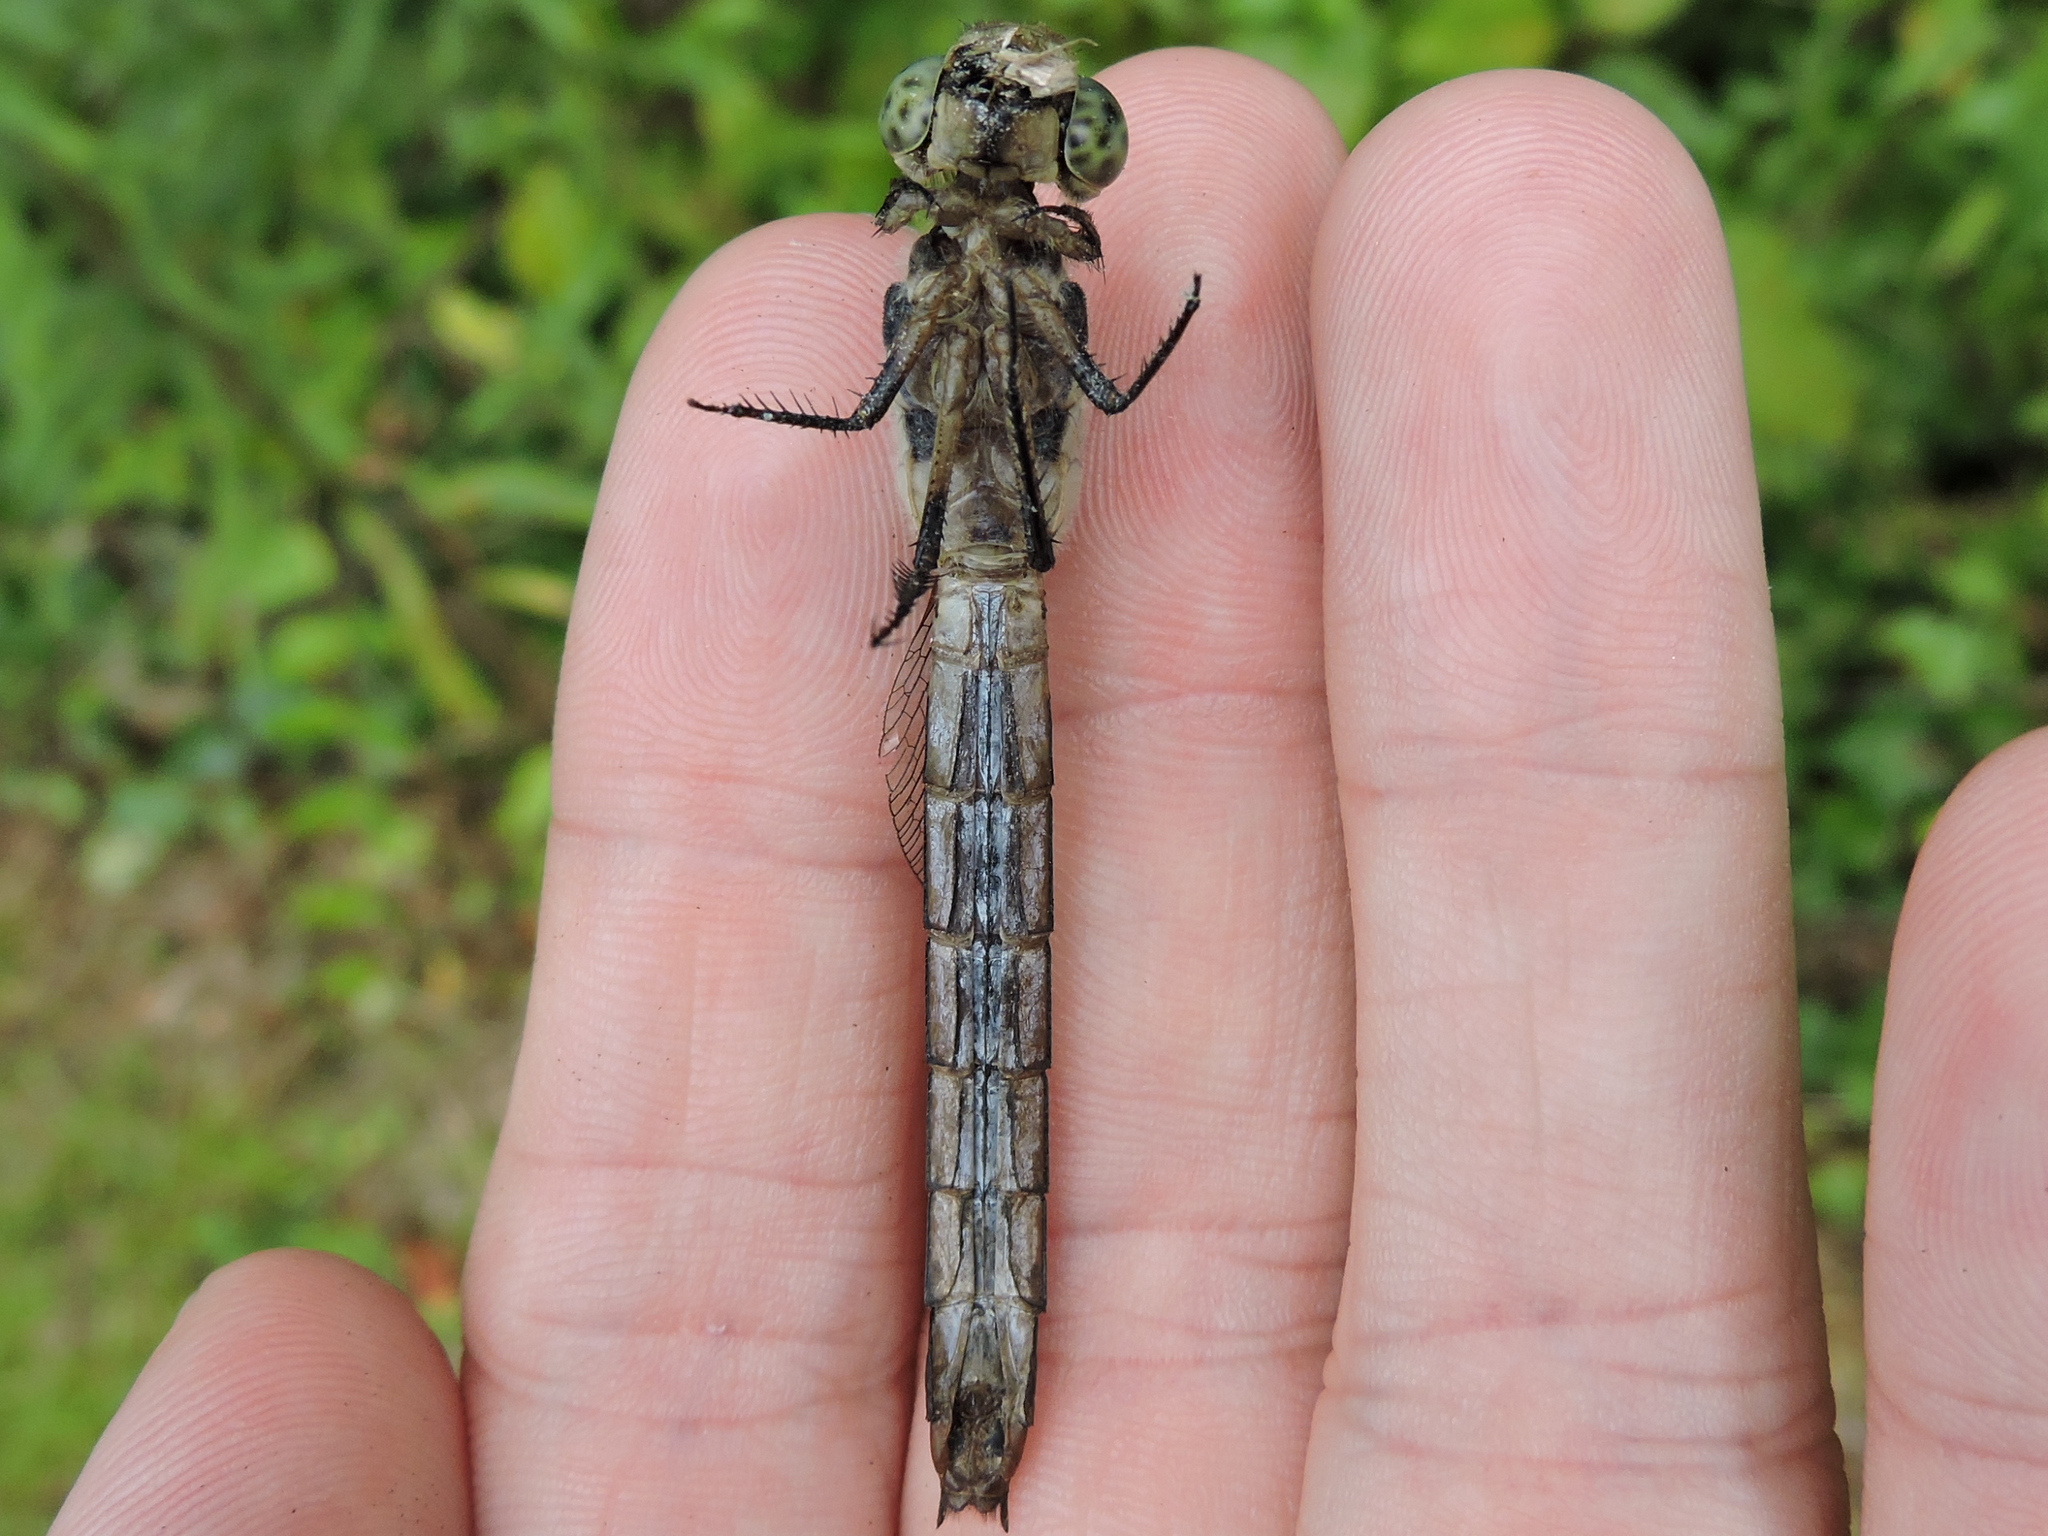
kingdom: Animalia
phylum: Arthropoda
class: Insecta
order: Odonata
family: Libellulidae
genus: Libellula
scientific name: Libellula vibrans
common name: Great blue skimmer
